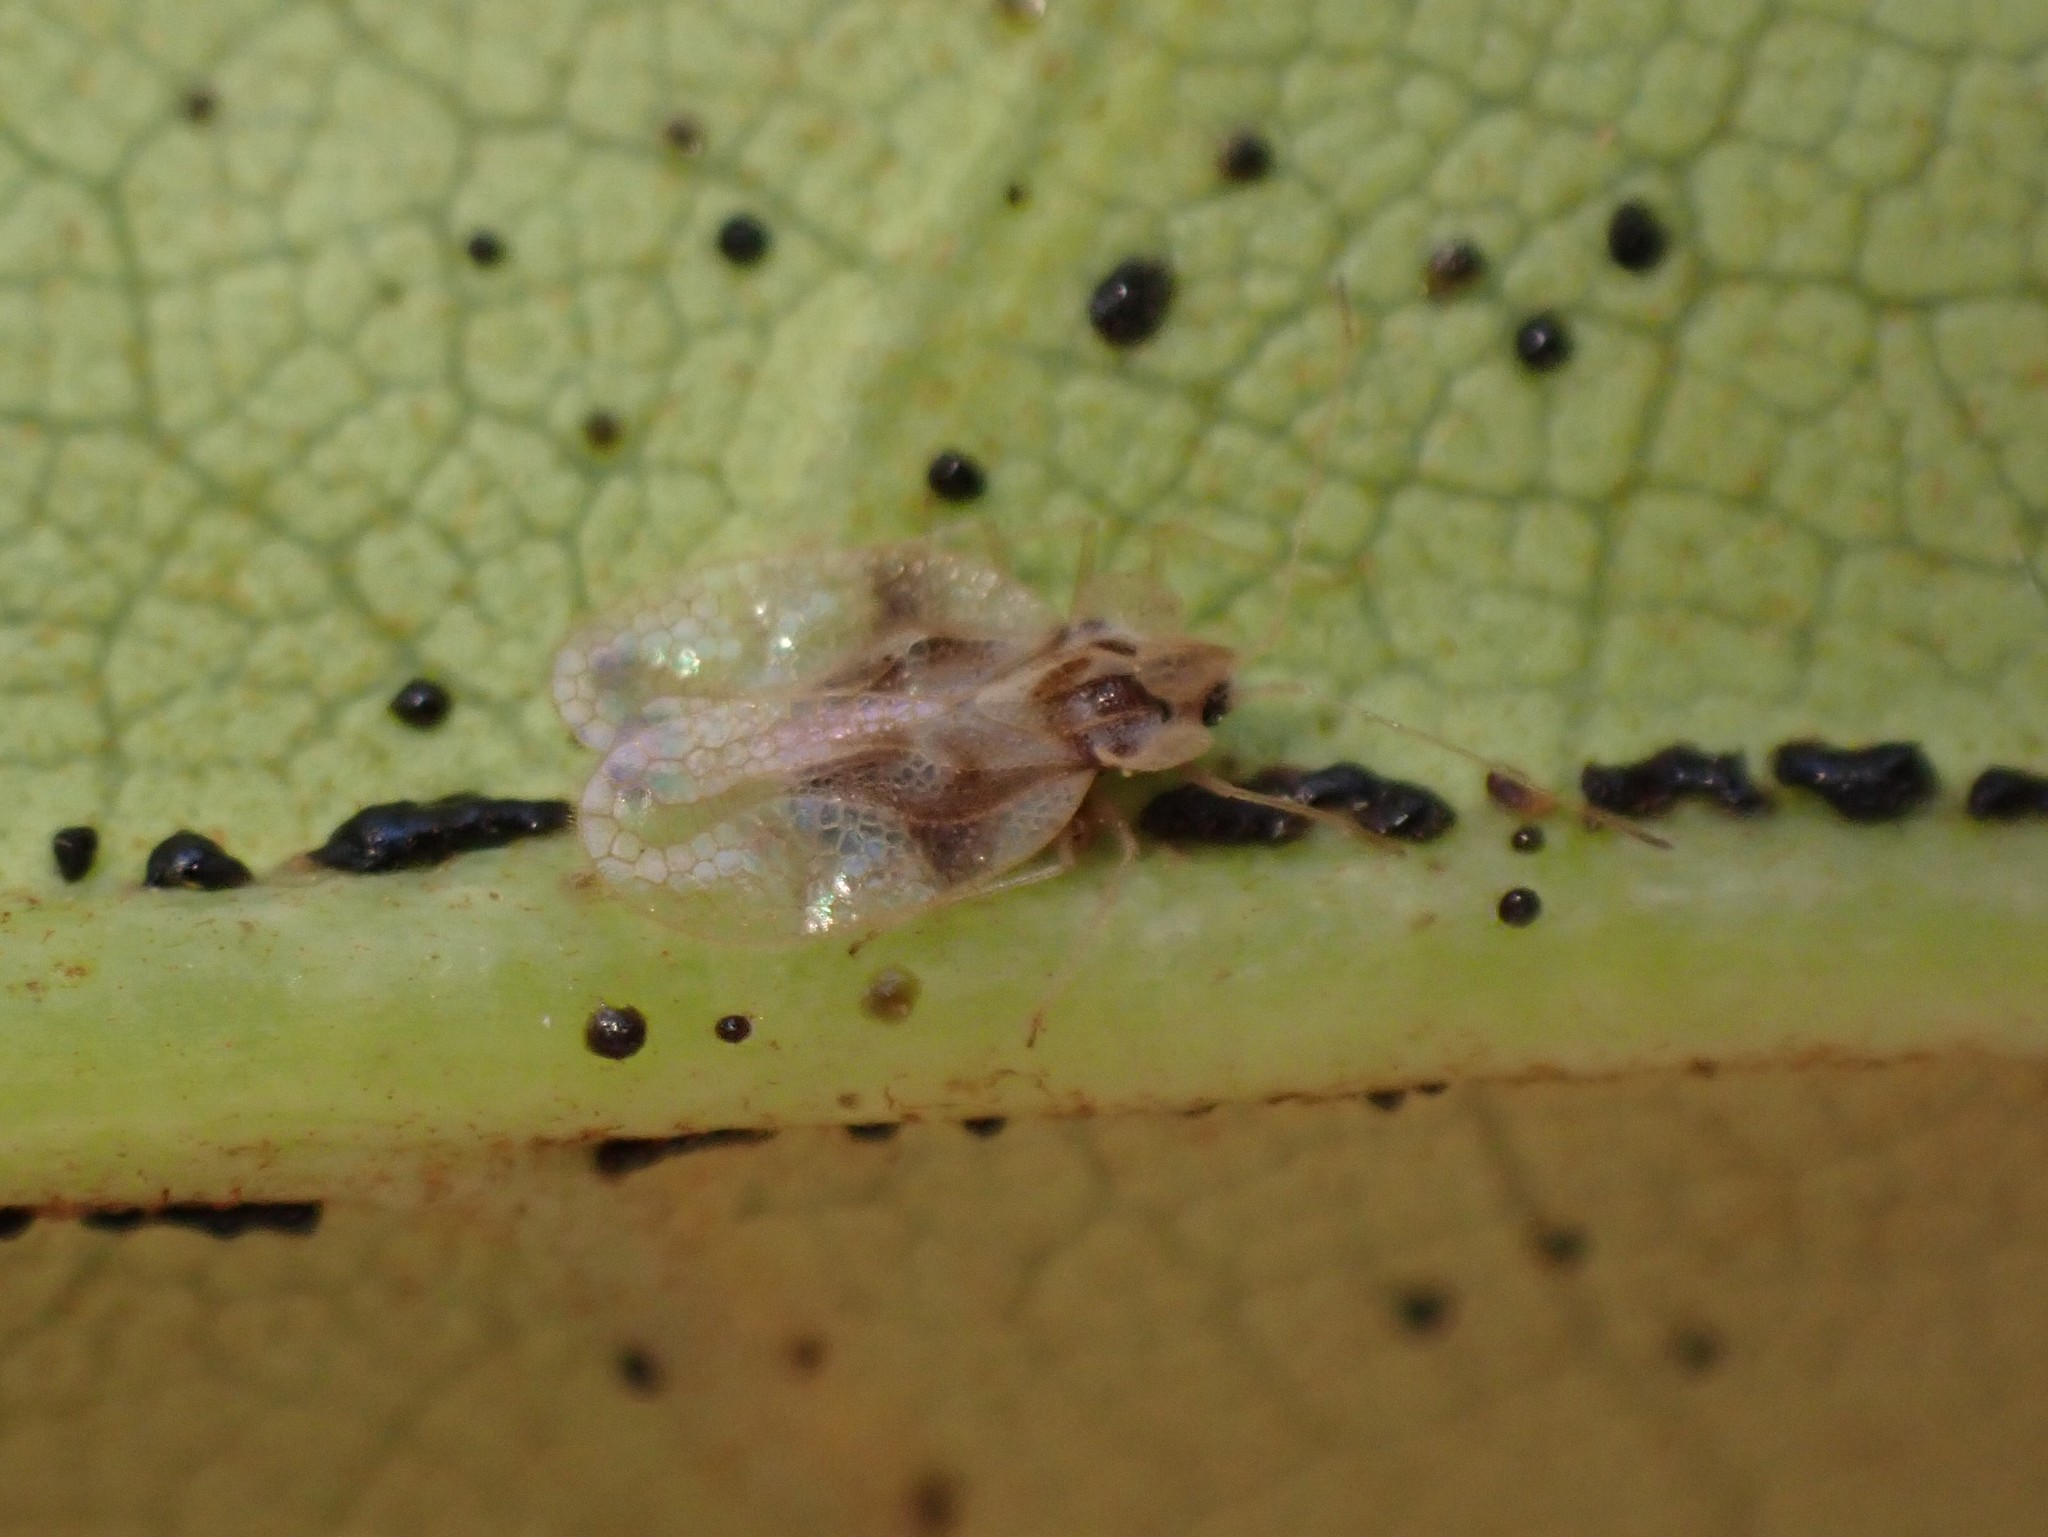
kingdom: Animalia
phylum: Arthropoda
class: Insecta
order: Hemiptera
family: Tingidae
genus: Stephanitis
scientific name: Stephanitis rhododendri
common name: Rhododendron lacebug
